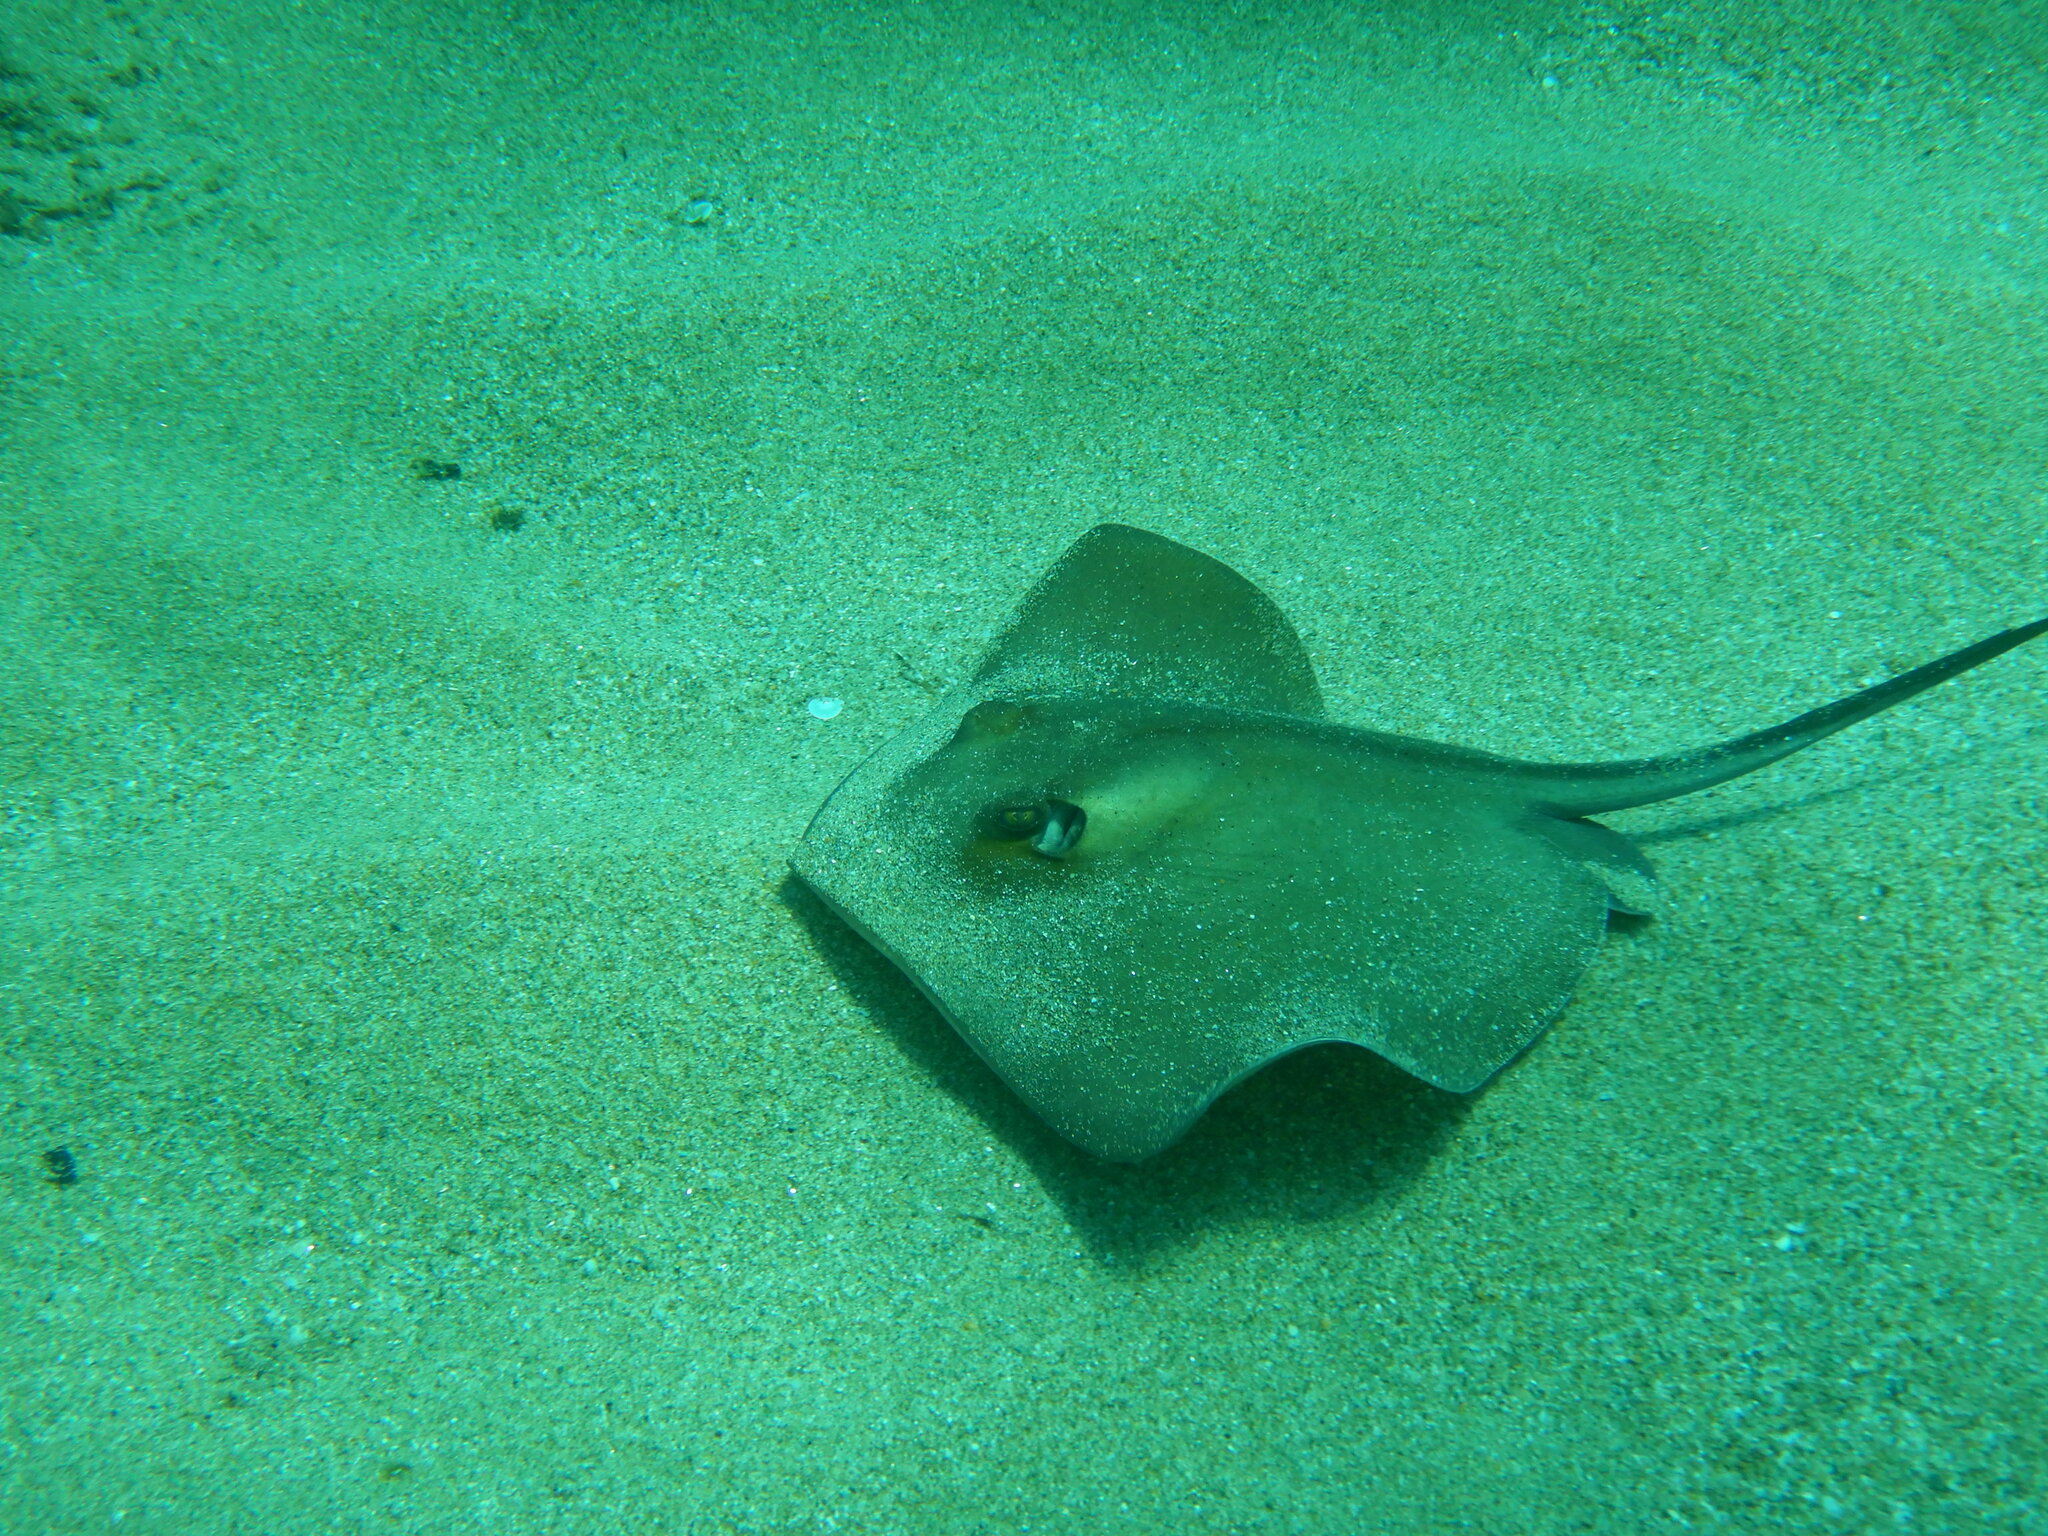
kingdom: Animalia
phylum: Chordata
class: Elasmobranchii
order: Myliobatiformes
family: Dasyatidae
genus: Dasyatis
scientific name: Dasyatis pastinaca
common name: Common stingray
